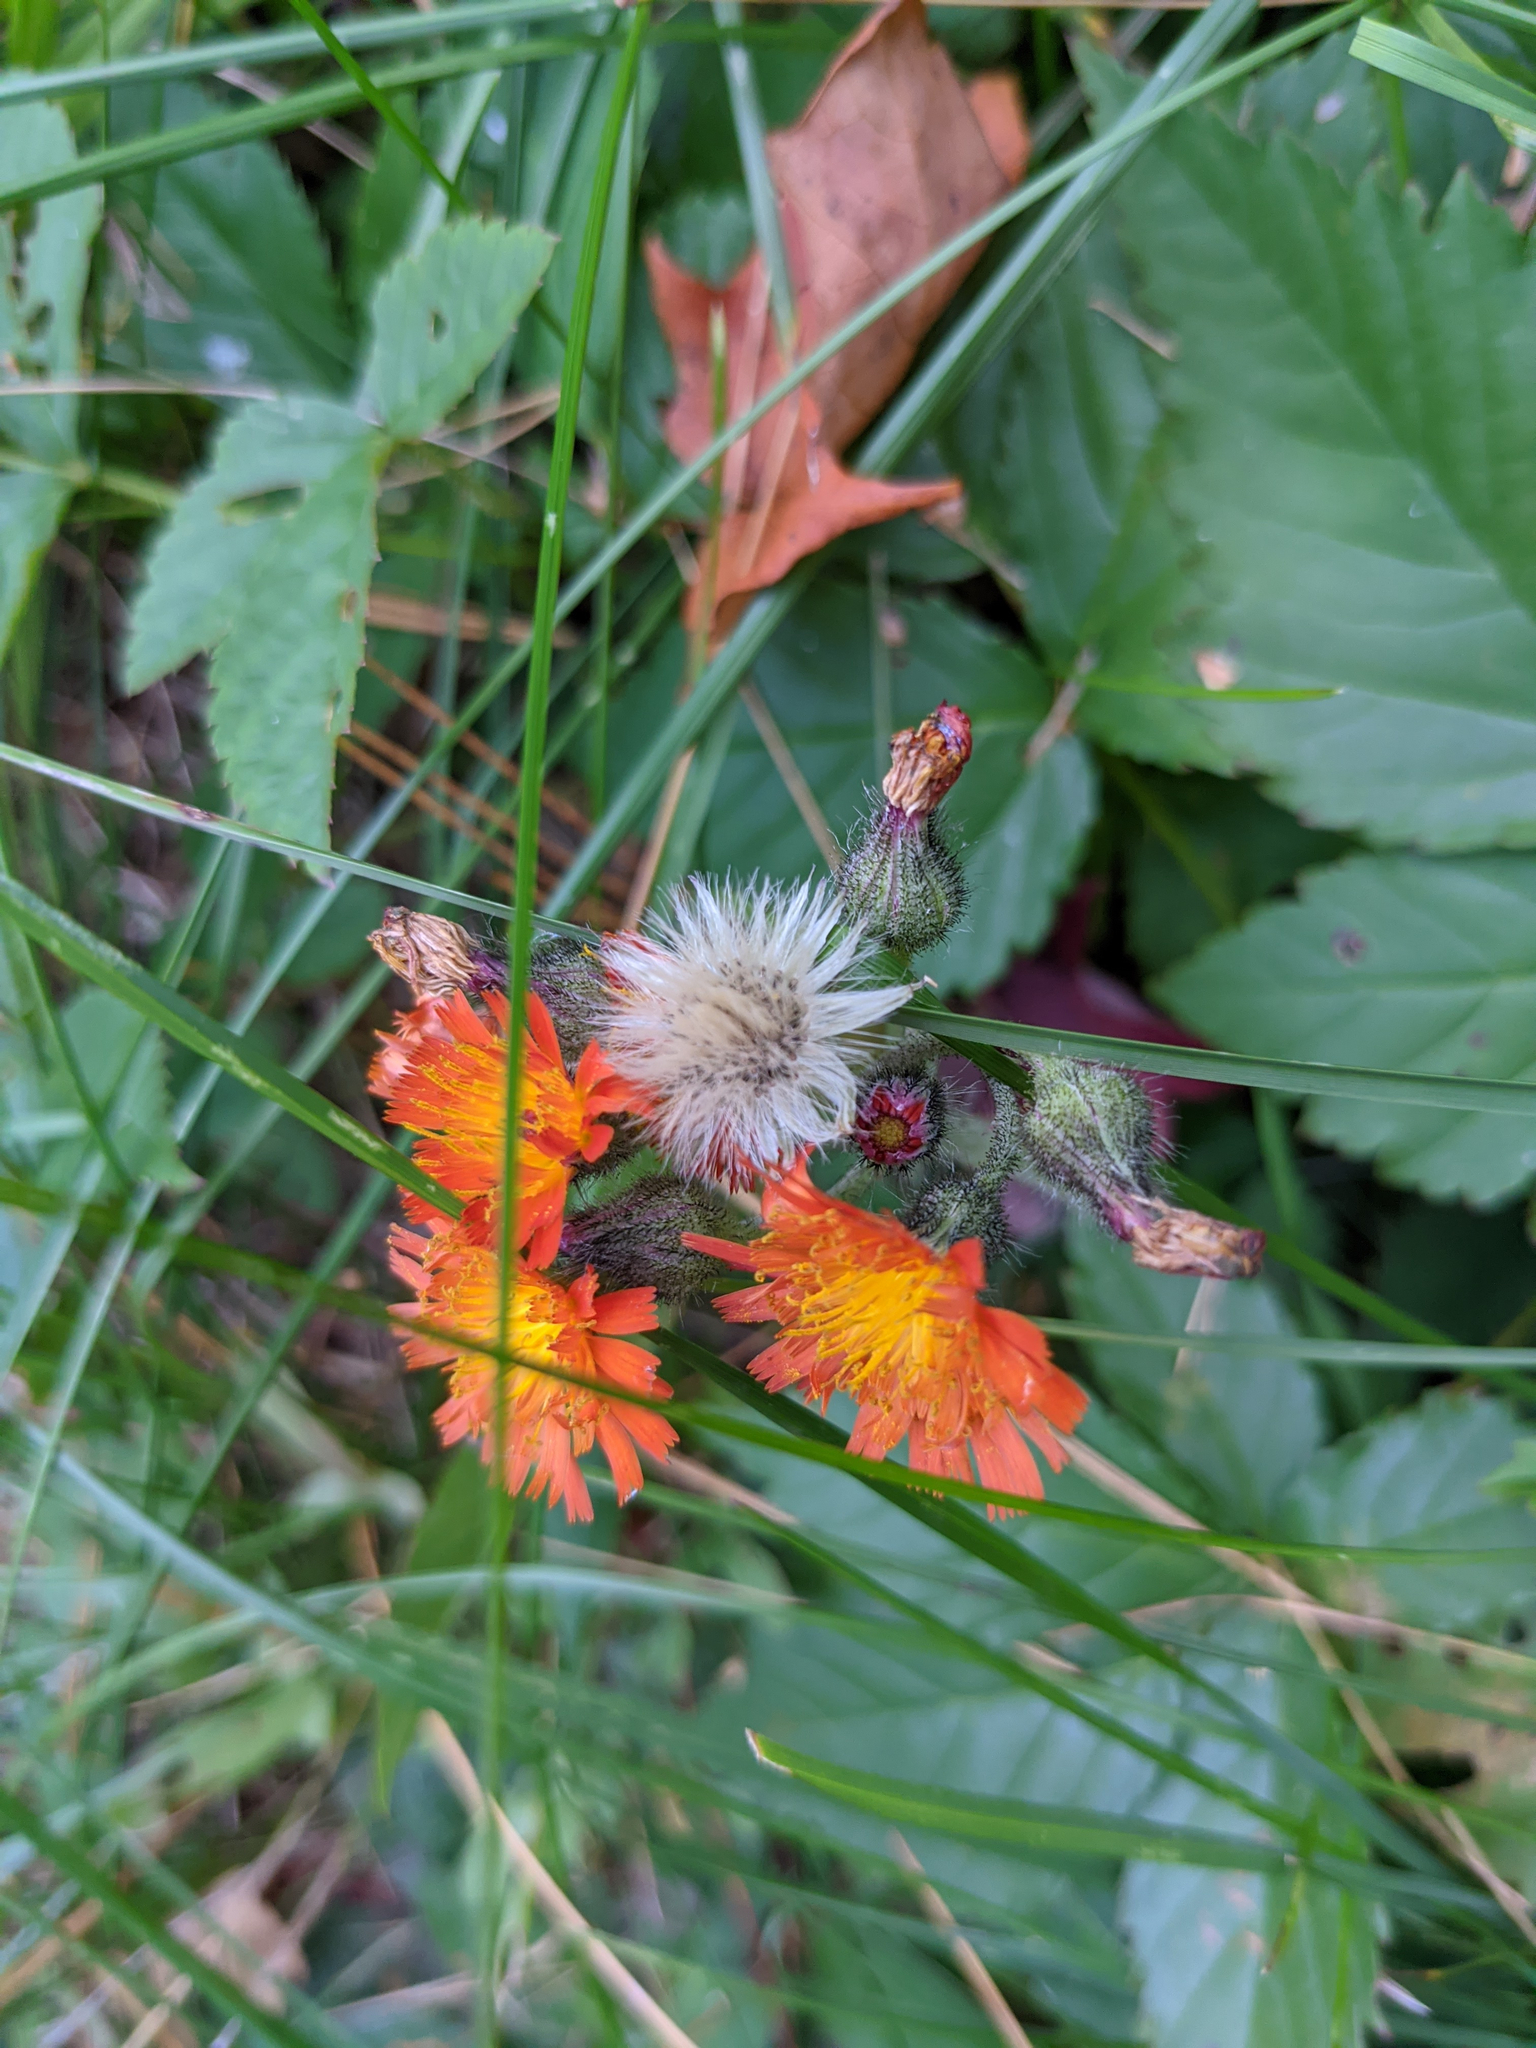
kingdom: Plantae
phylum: Tracheophyta
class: Magnoliopsida
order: Asterales
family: Asteraceae
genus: Pilosella
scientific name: Pilosella aurantiaca
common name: Fox-and-cubs
